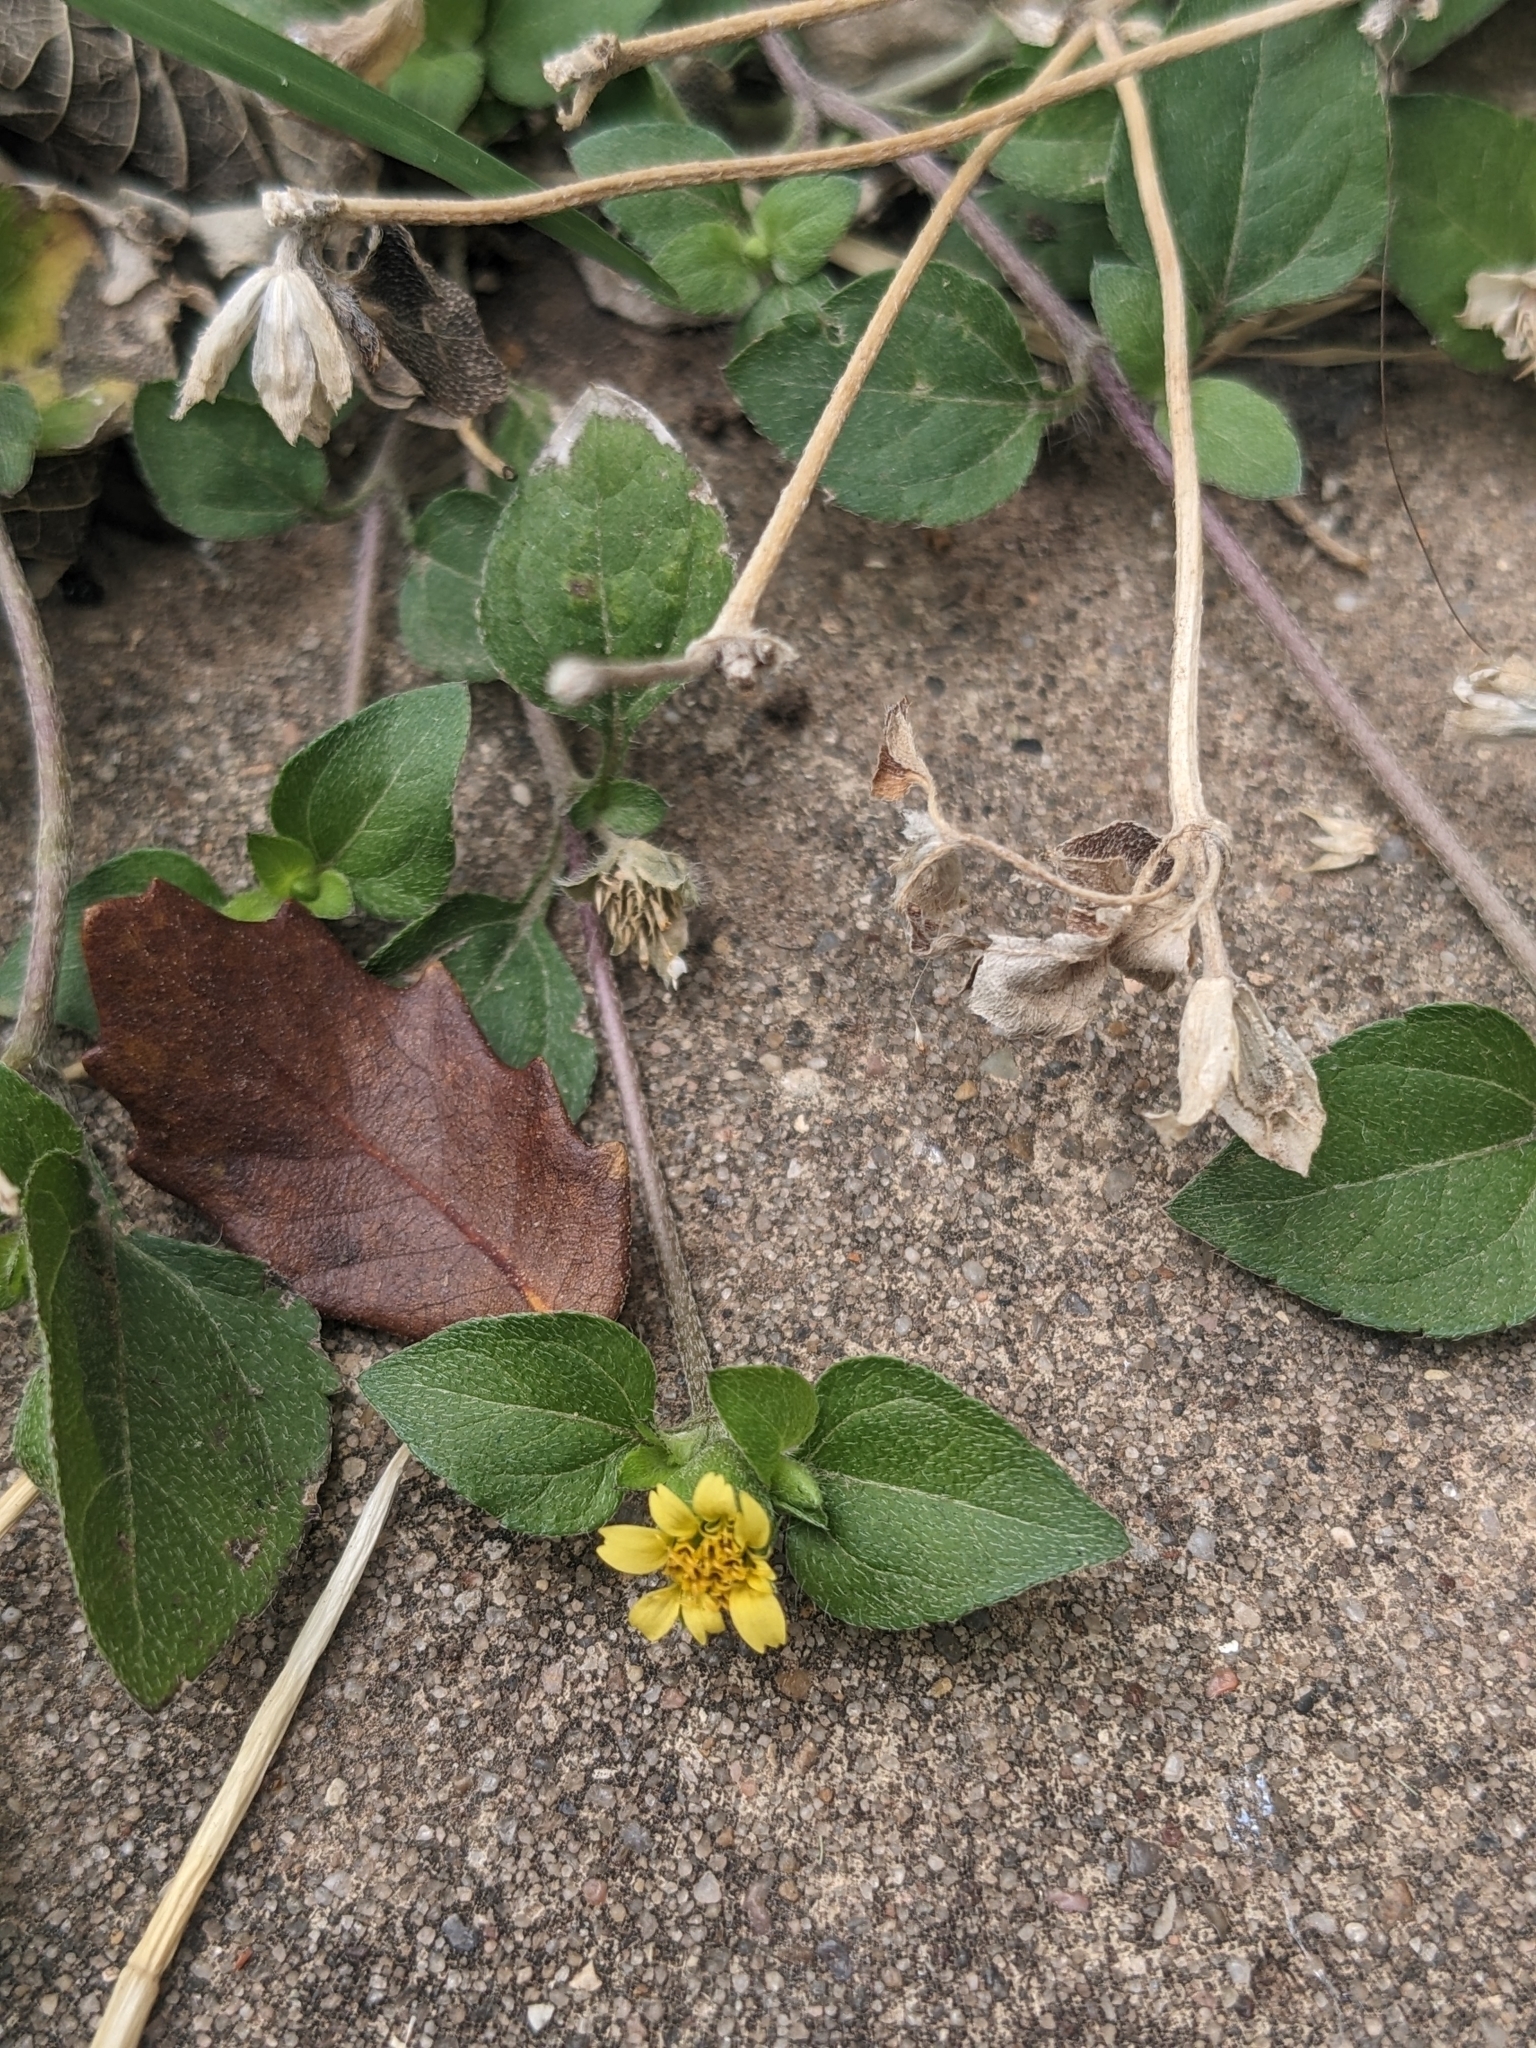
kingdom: Plantae
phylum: Tracheophyta
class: Magnoliopsida
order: Asterales
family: Asteraceae
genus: Calyptocarpus
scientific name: Calyptocarpus vialis
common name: Straggler daisy
